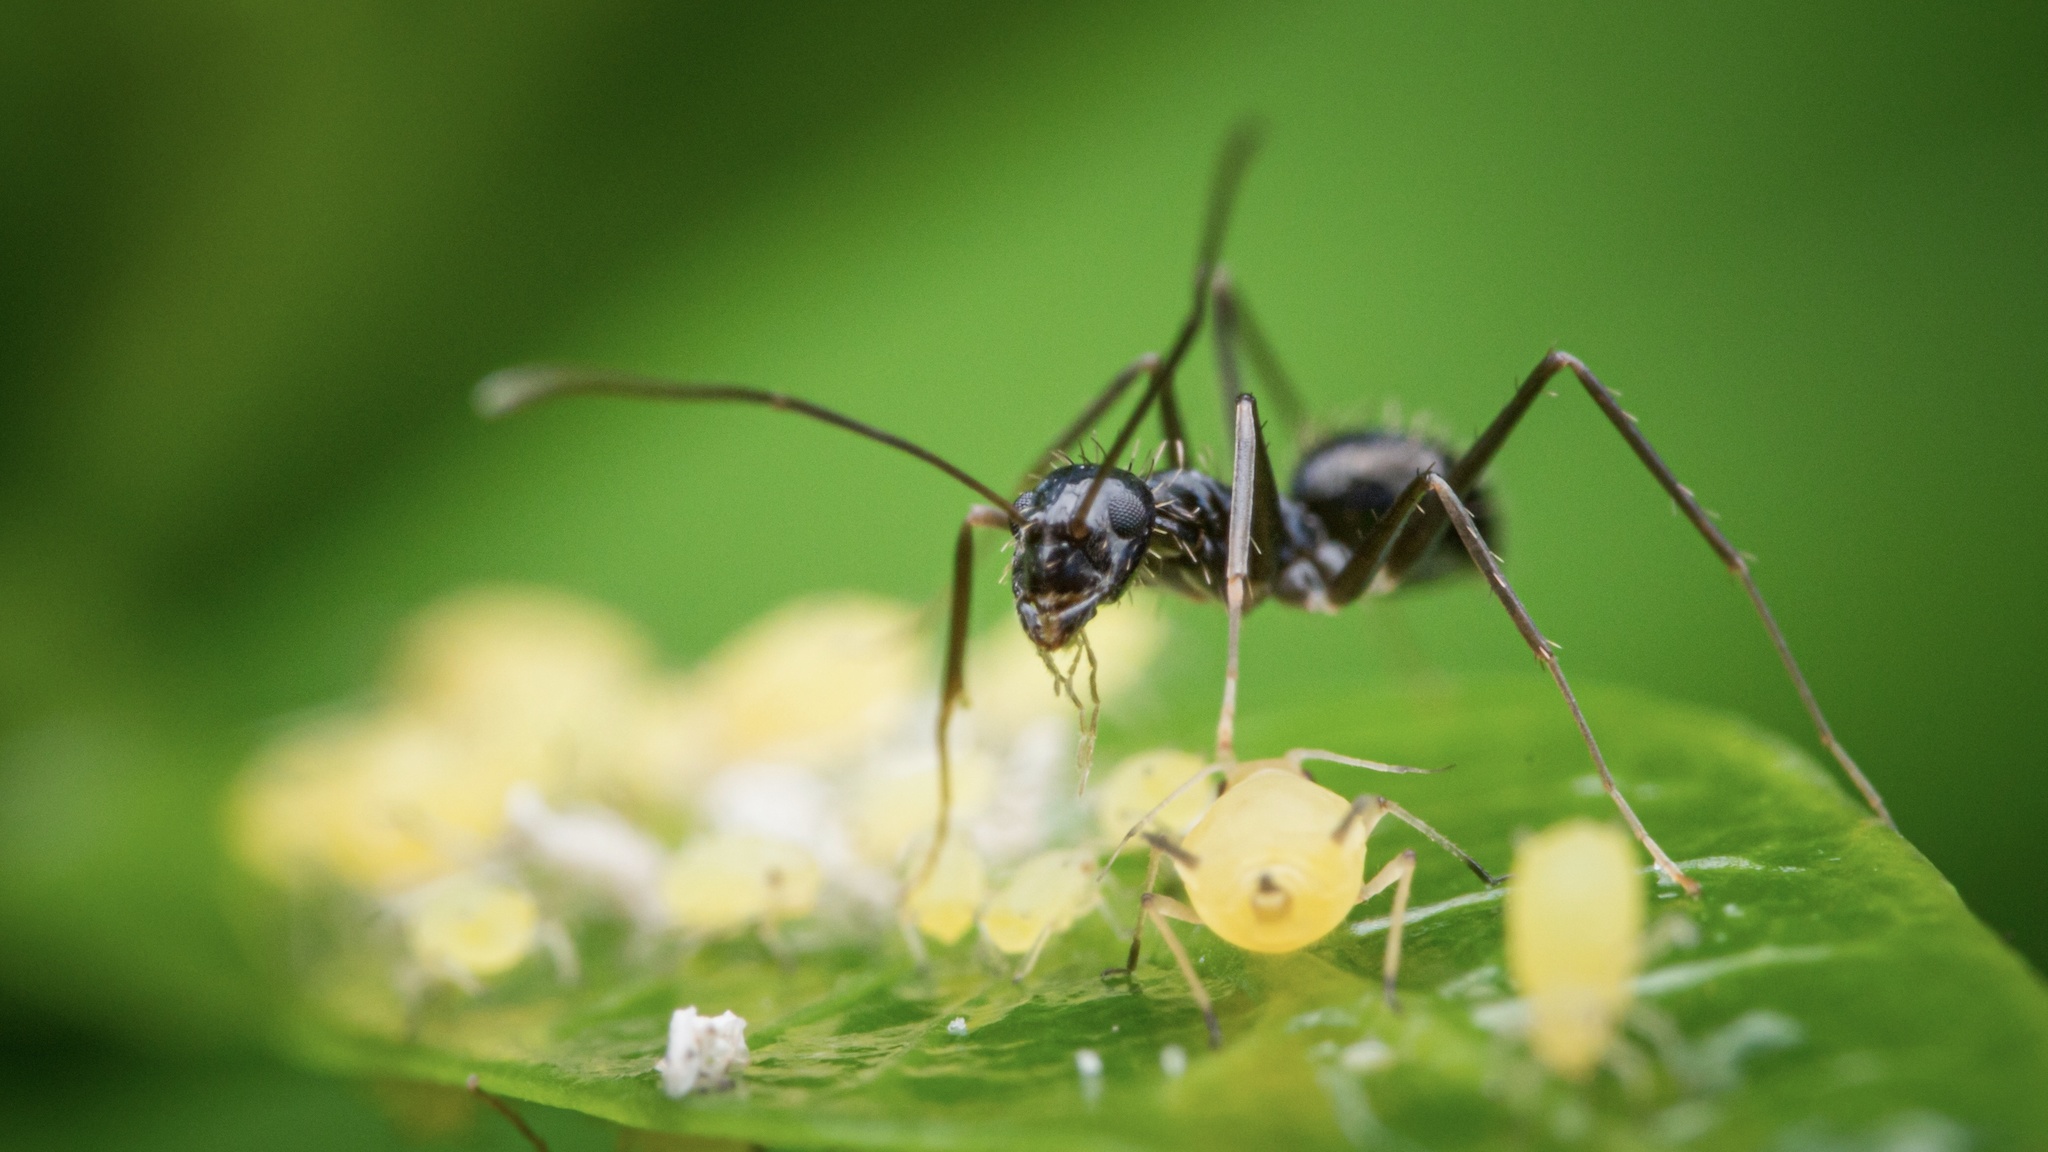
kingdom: Animalia
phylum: Arthropoda
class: Insecta
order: Hymenoptera
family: Formicidae
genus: Paratrechina
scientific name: Paratrechina longicornis
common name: Longhorned crazy ant
